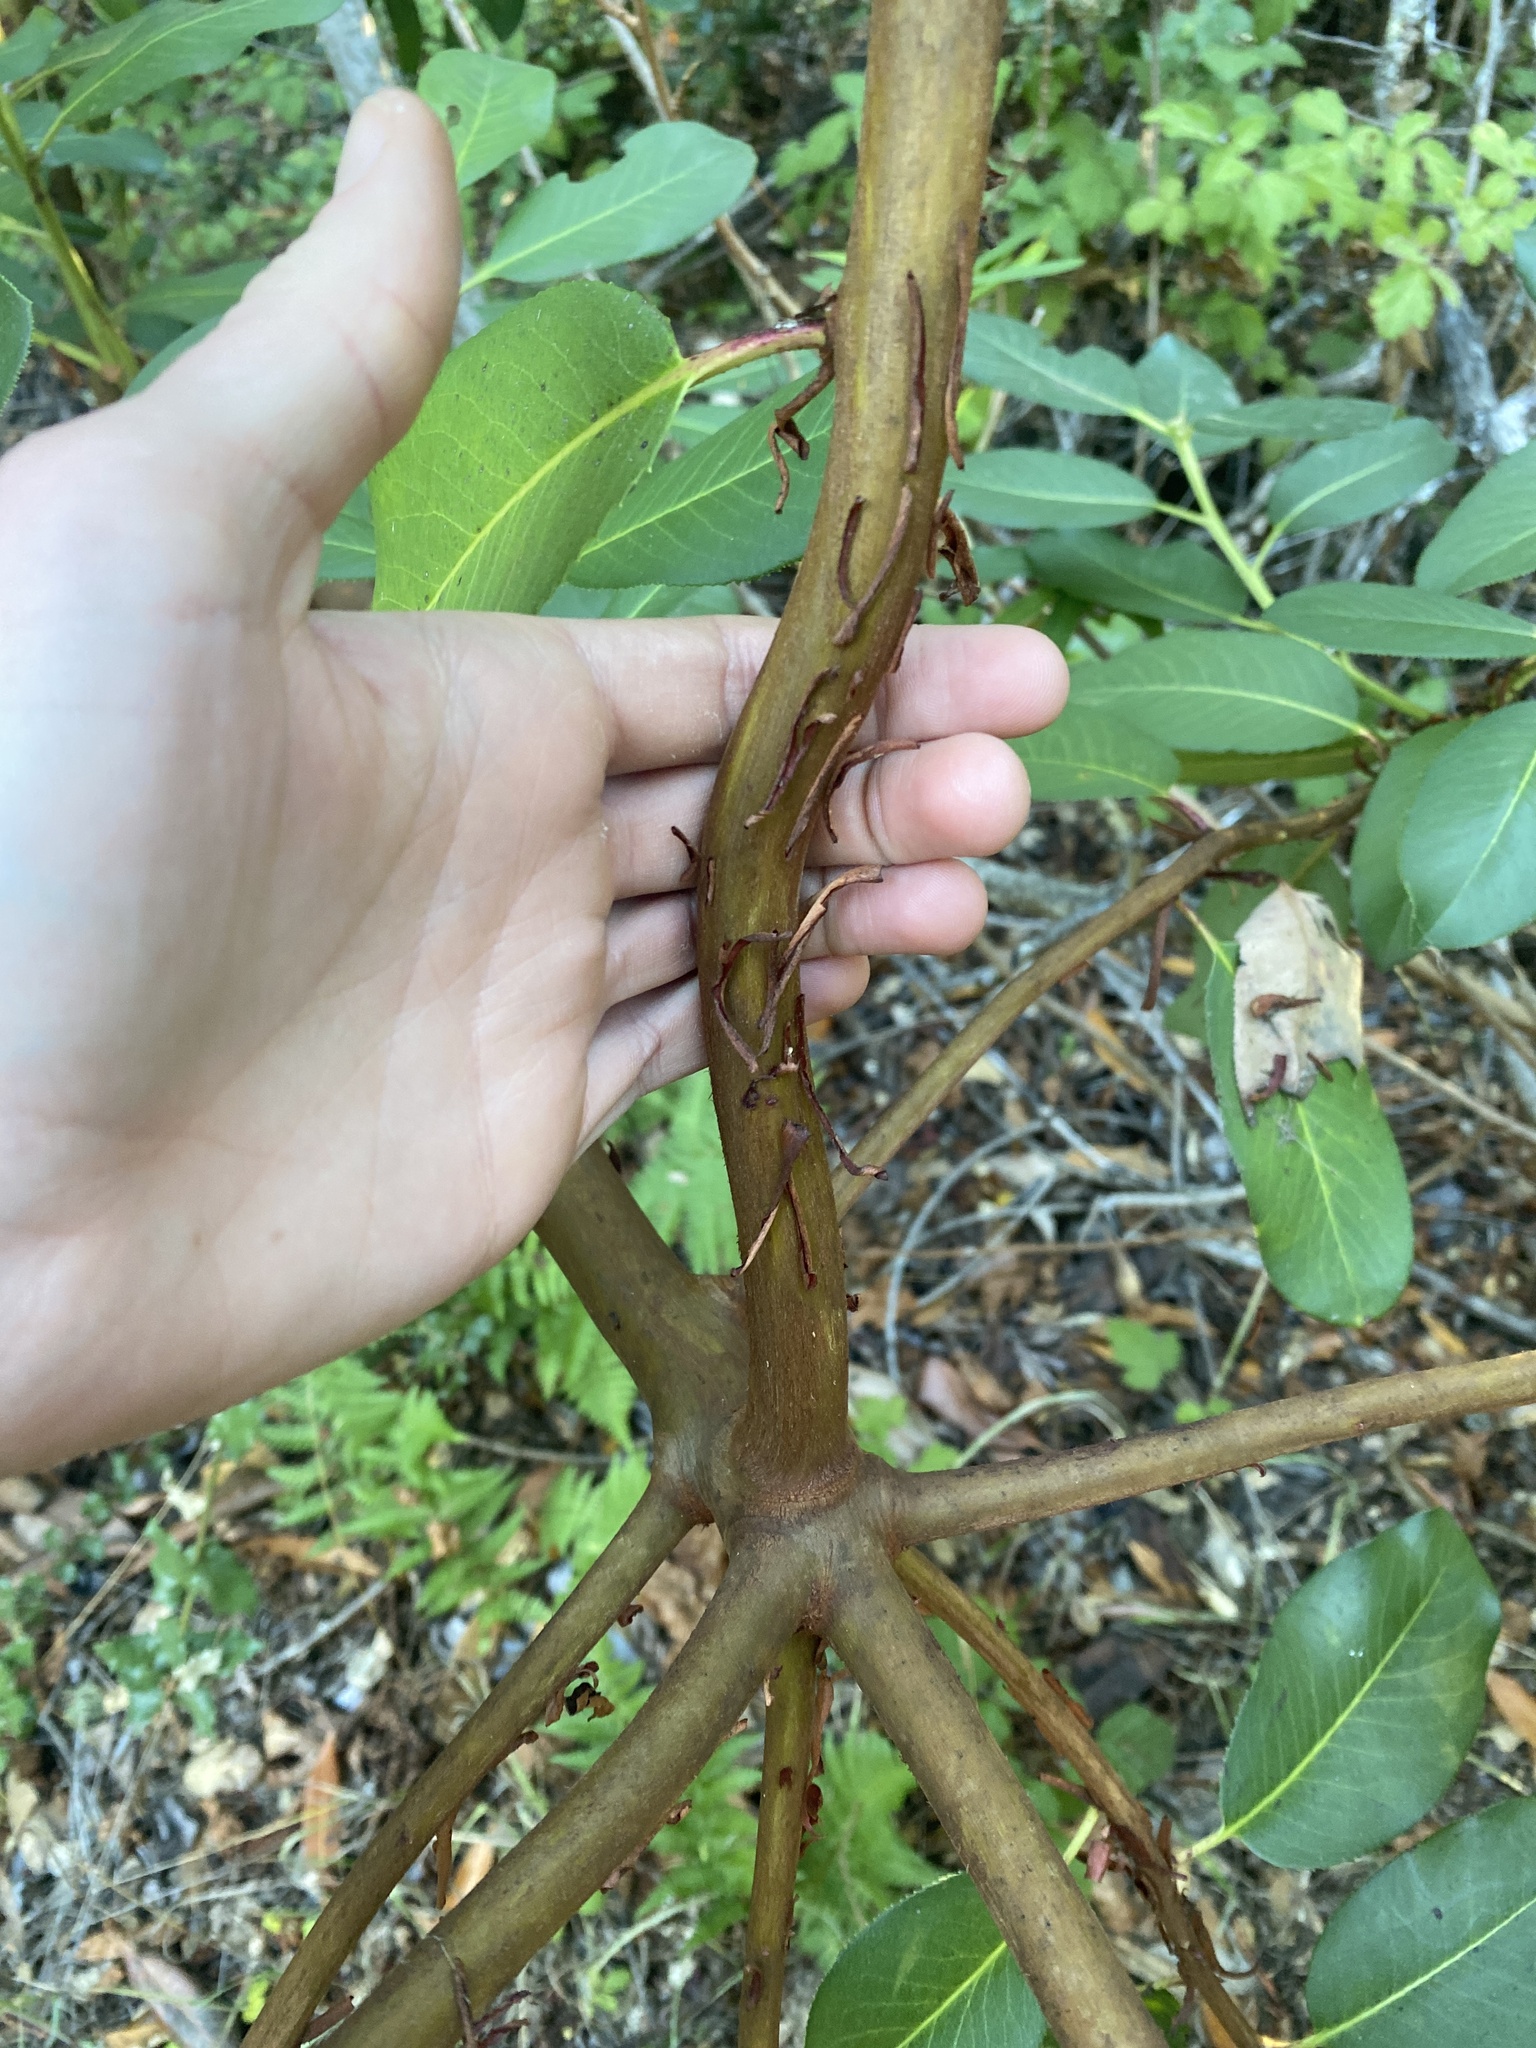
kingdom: Plantae
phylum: Tracheophyta
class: Magnoliopsida
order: Ericales
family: Ericaceae
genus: Arbutus
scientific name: Arbutus menziesii
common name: Pacific madrone
